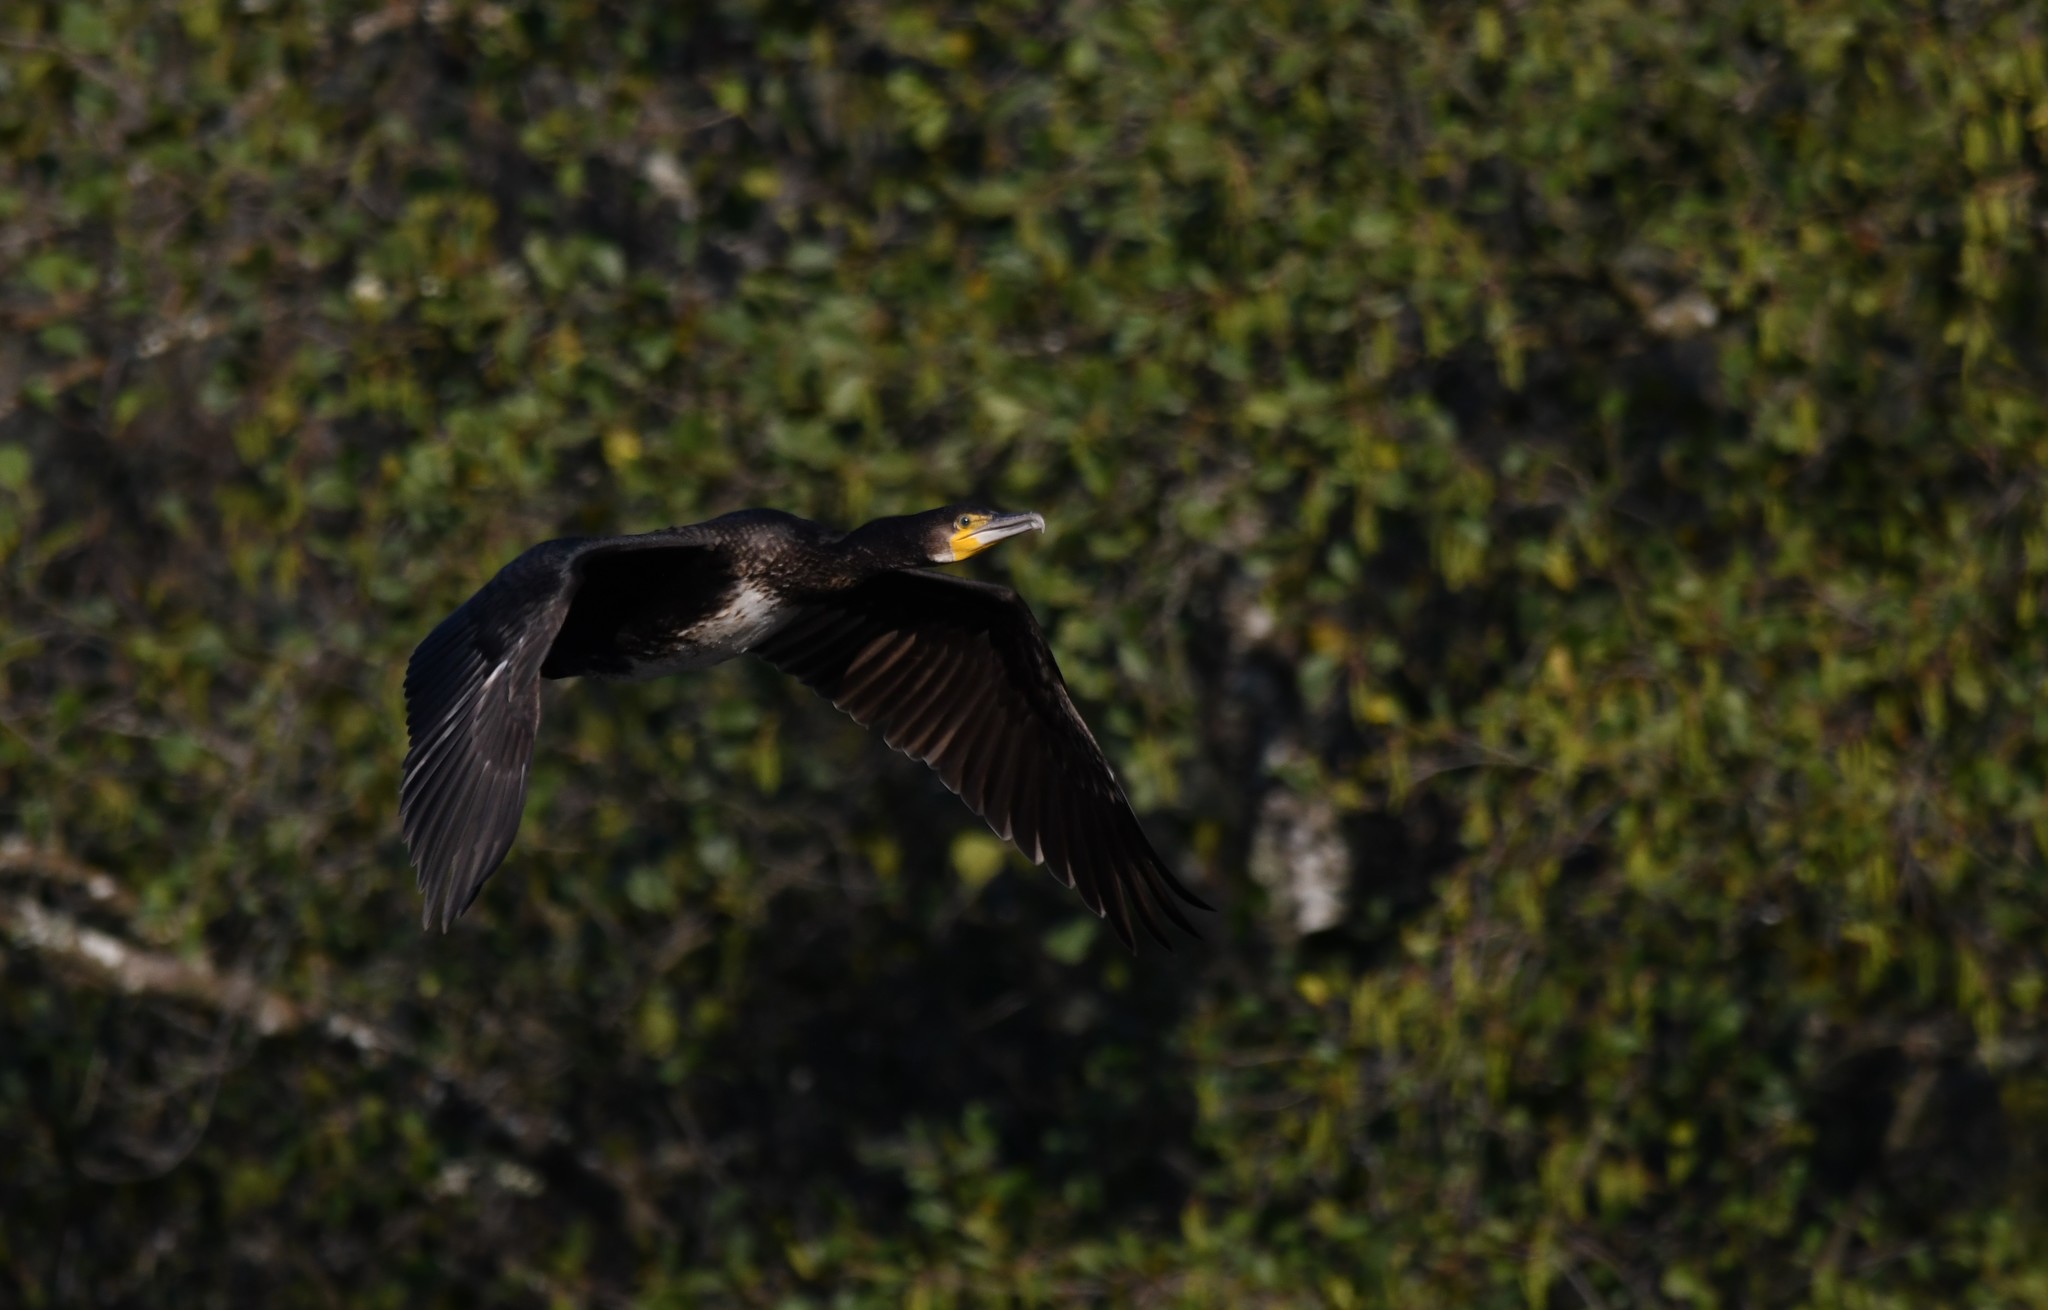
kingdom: Animalia
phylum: Chordata
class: Aves
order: Suliformes
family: Phalacrocoracidae
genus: Phalacrocorax
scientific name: Phalacrocorax carbo
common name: Great cormorant
